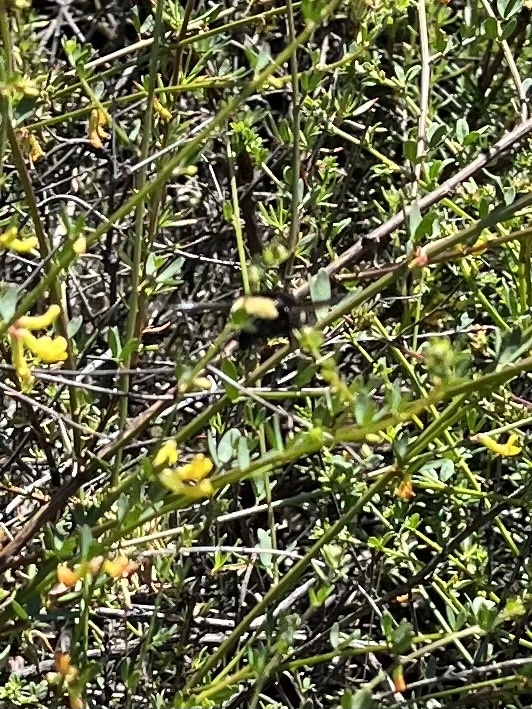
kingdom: Animalia
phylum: Arthropoda
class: Insecta
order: Hymenoptera
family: Apidae
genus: Bombus
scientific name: Bombus californicus
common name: California bumble bee
